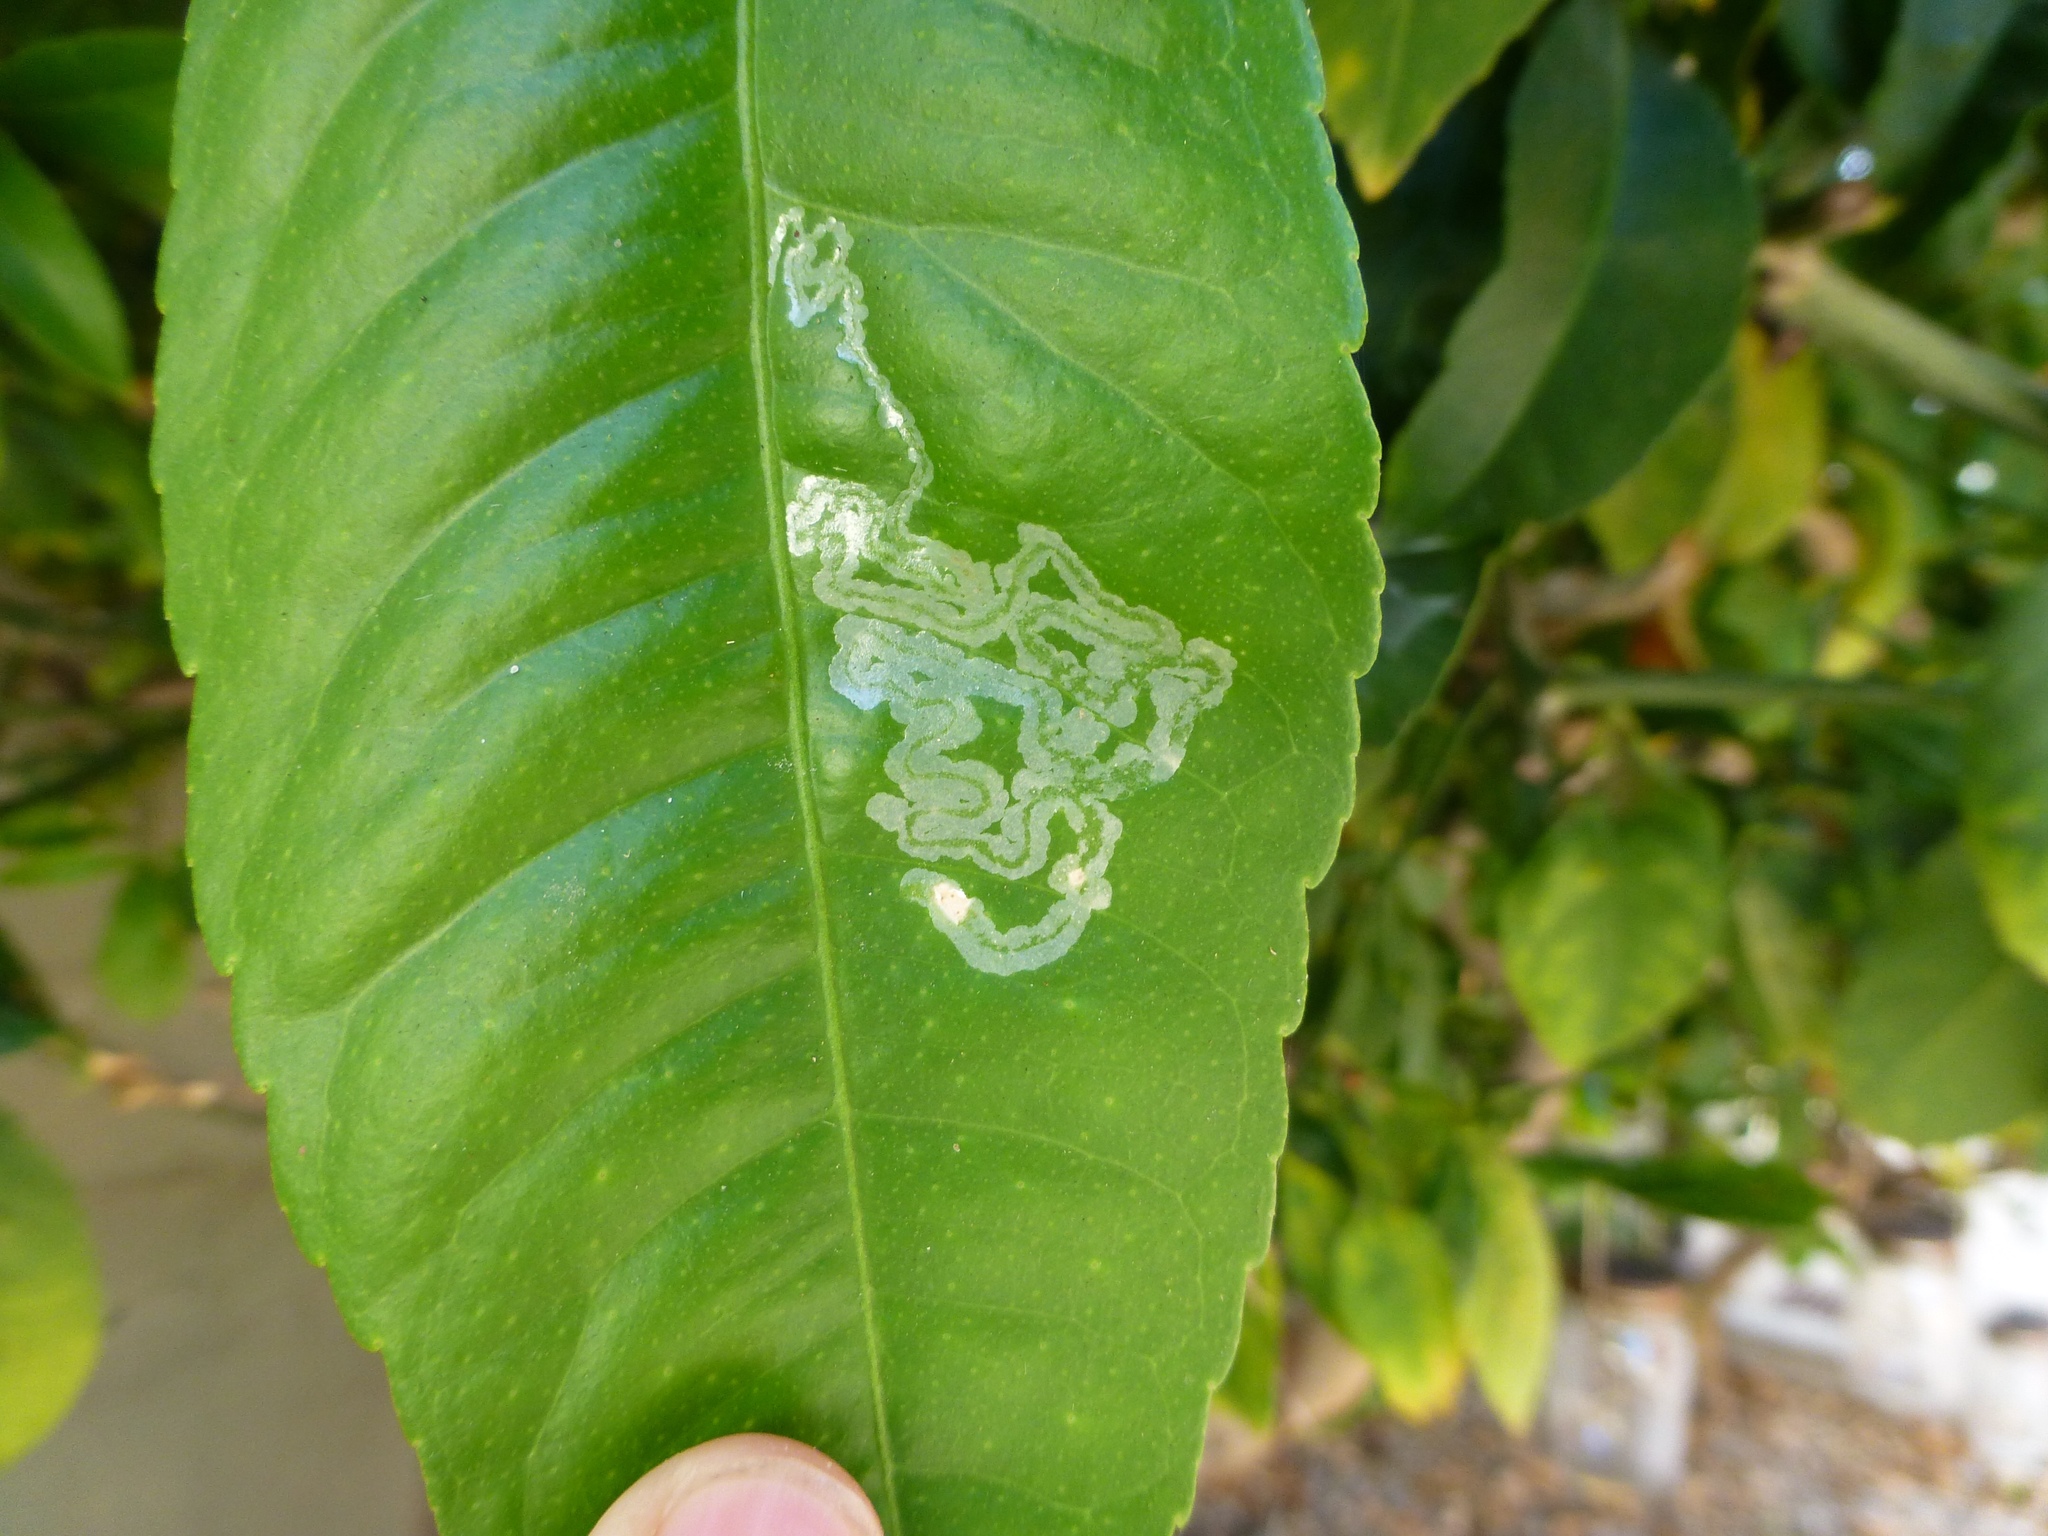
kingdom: Animalia
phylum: Arthropoda
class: Insecta
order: Lepidoptera
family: Gracillariidae
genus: Phyllocnistis
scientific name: Phyllocnistis citrella
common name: Citrus leafminer
